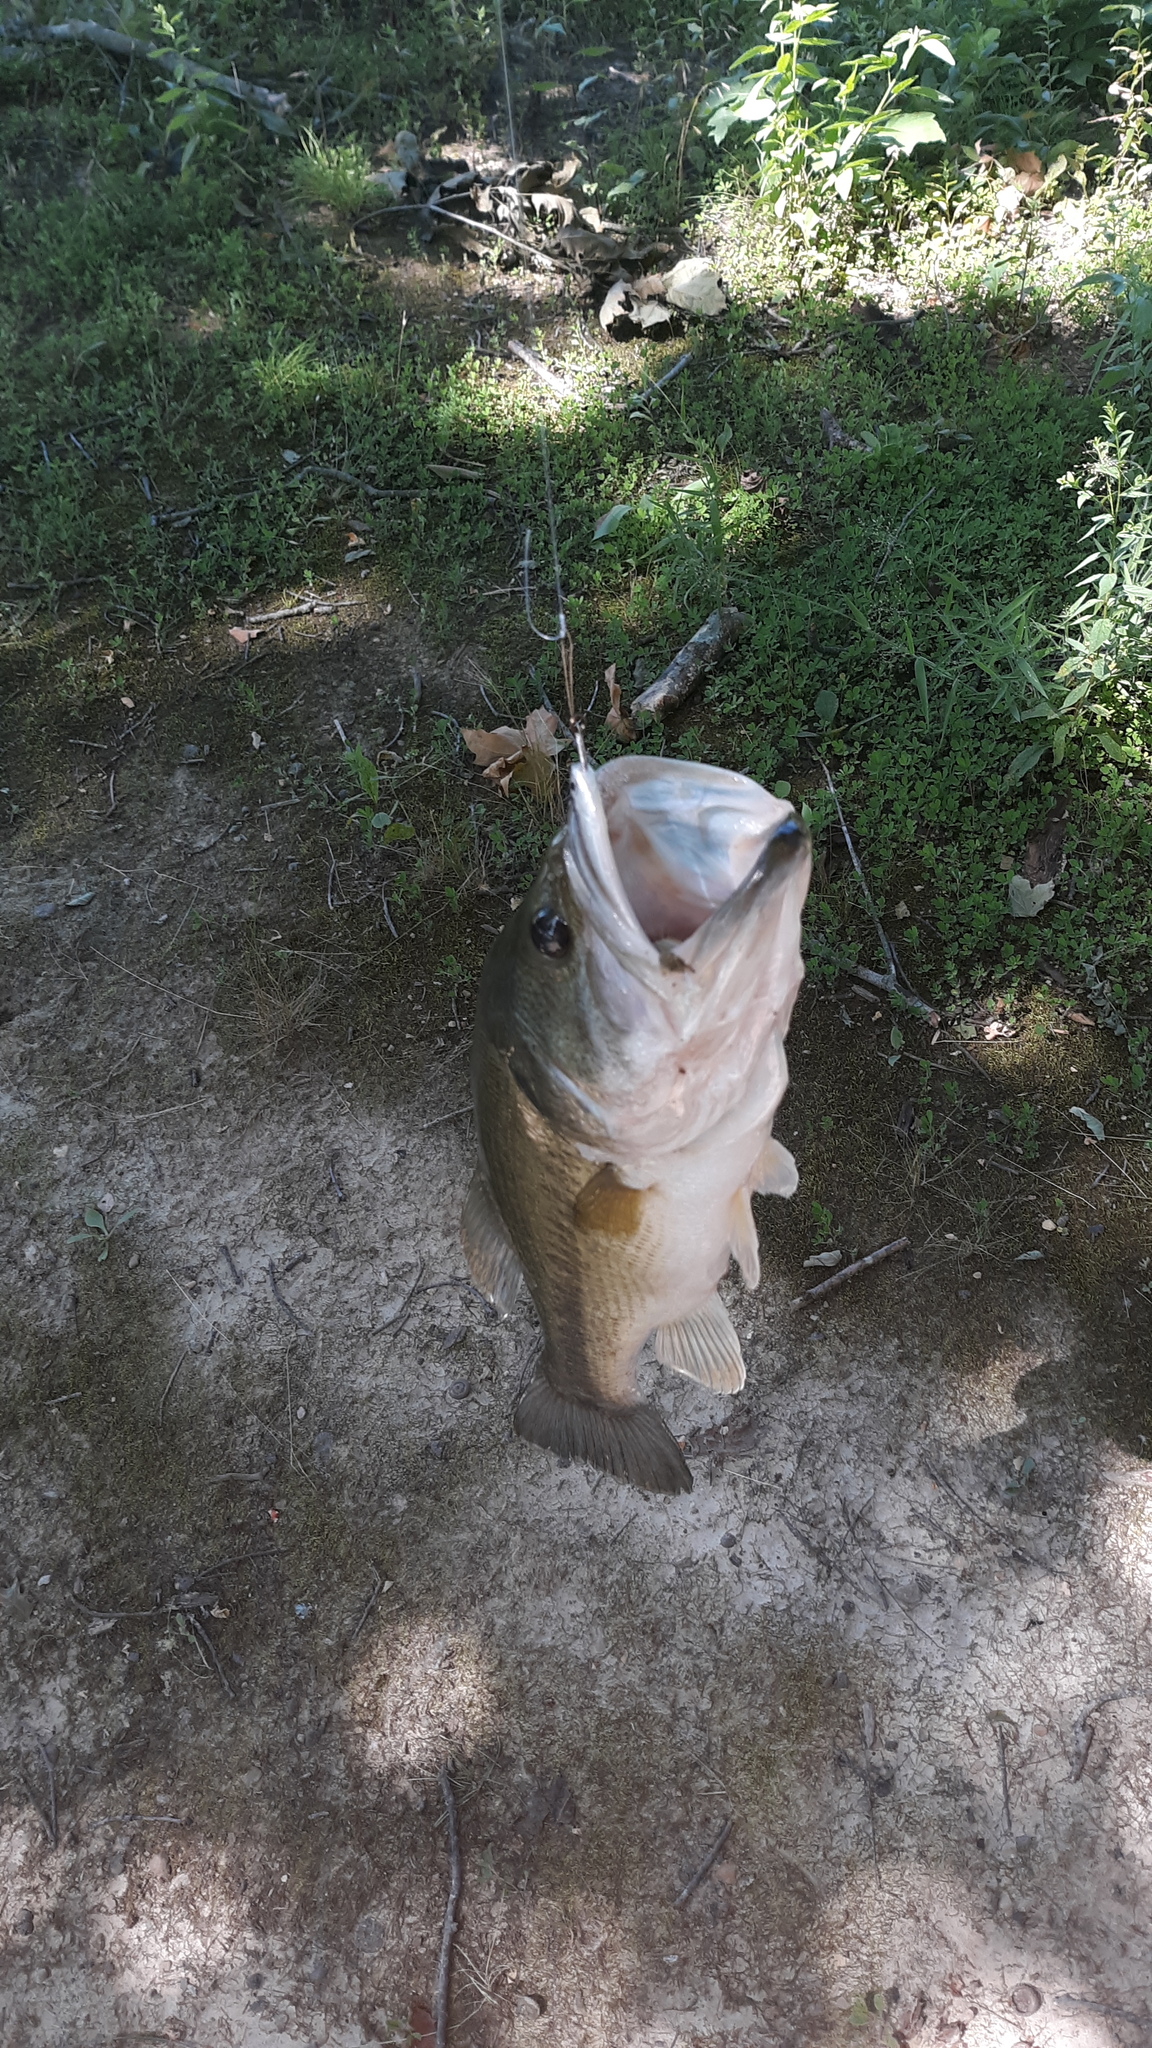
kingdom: Animalia
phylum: Chordata
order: Perciformes
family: Centrarchidae
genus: Micropterus
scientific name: Micropterus
